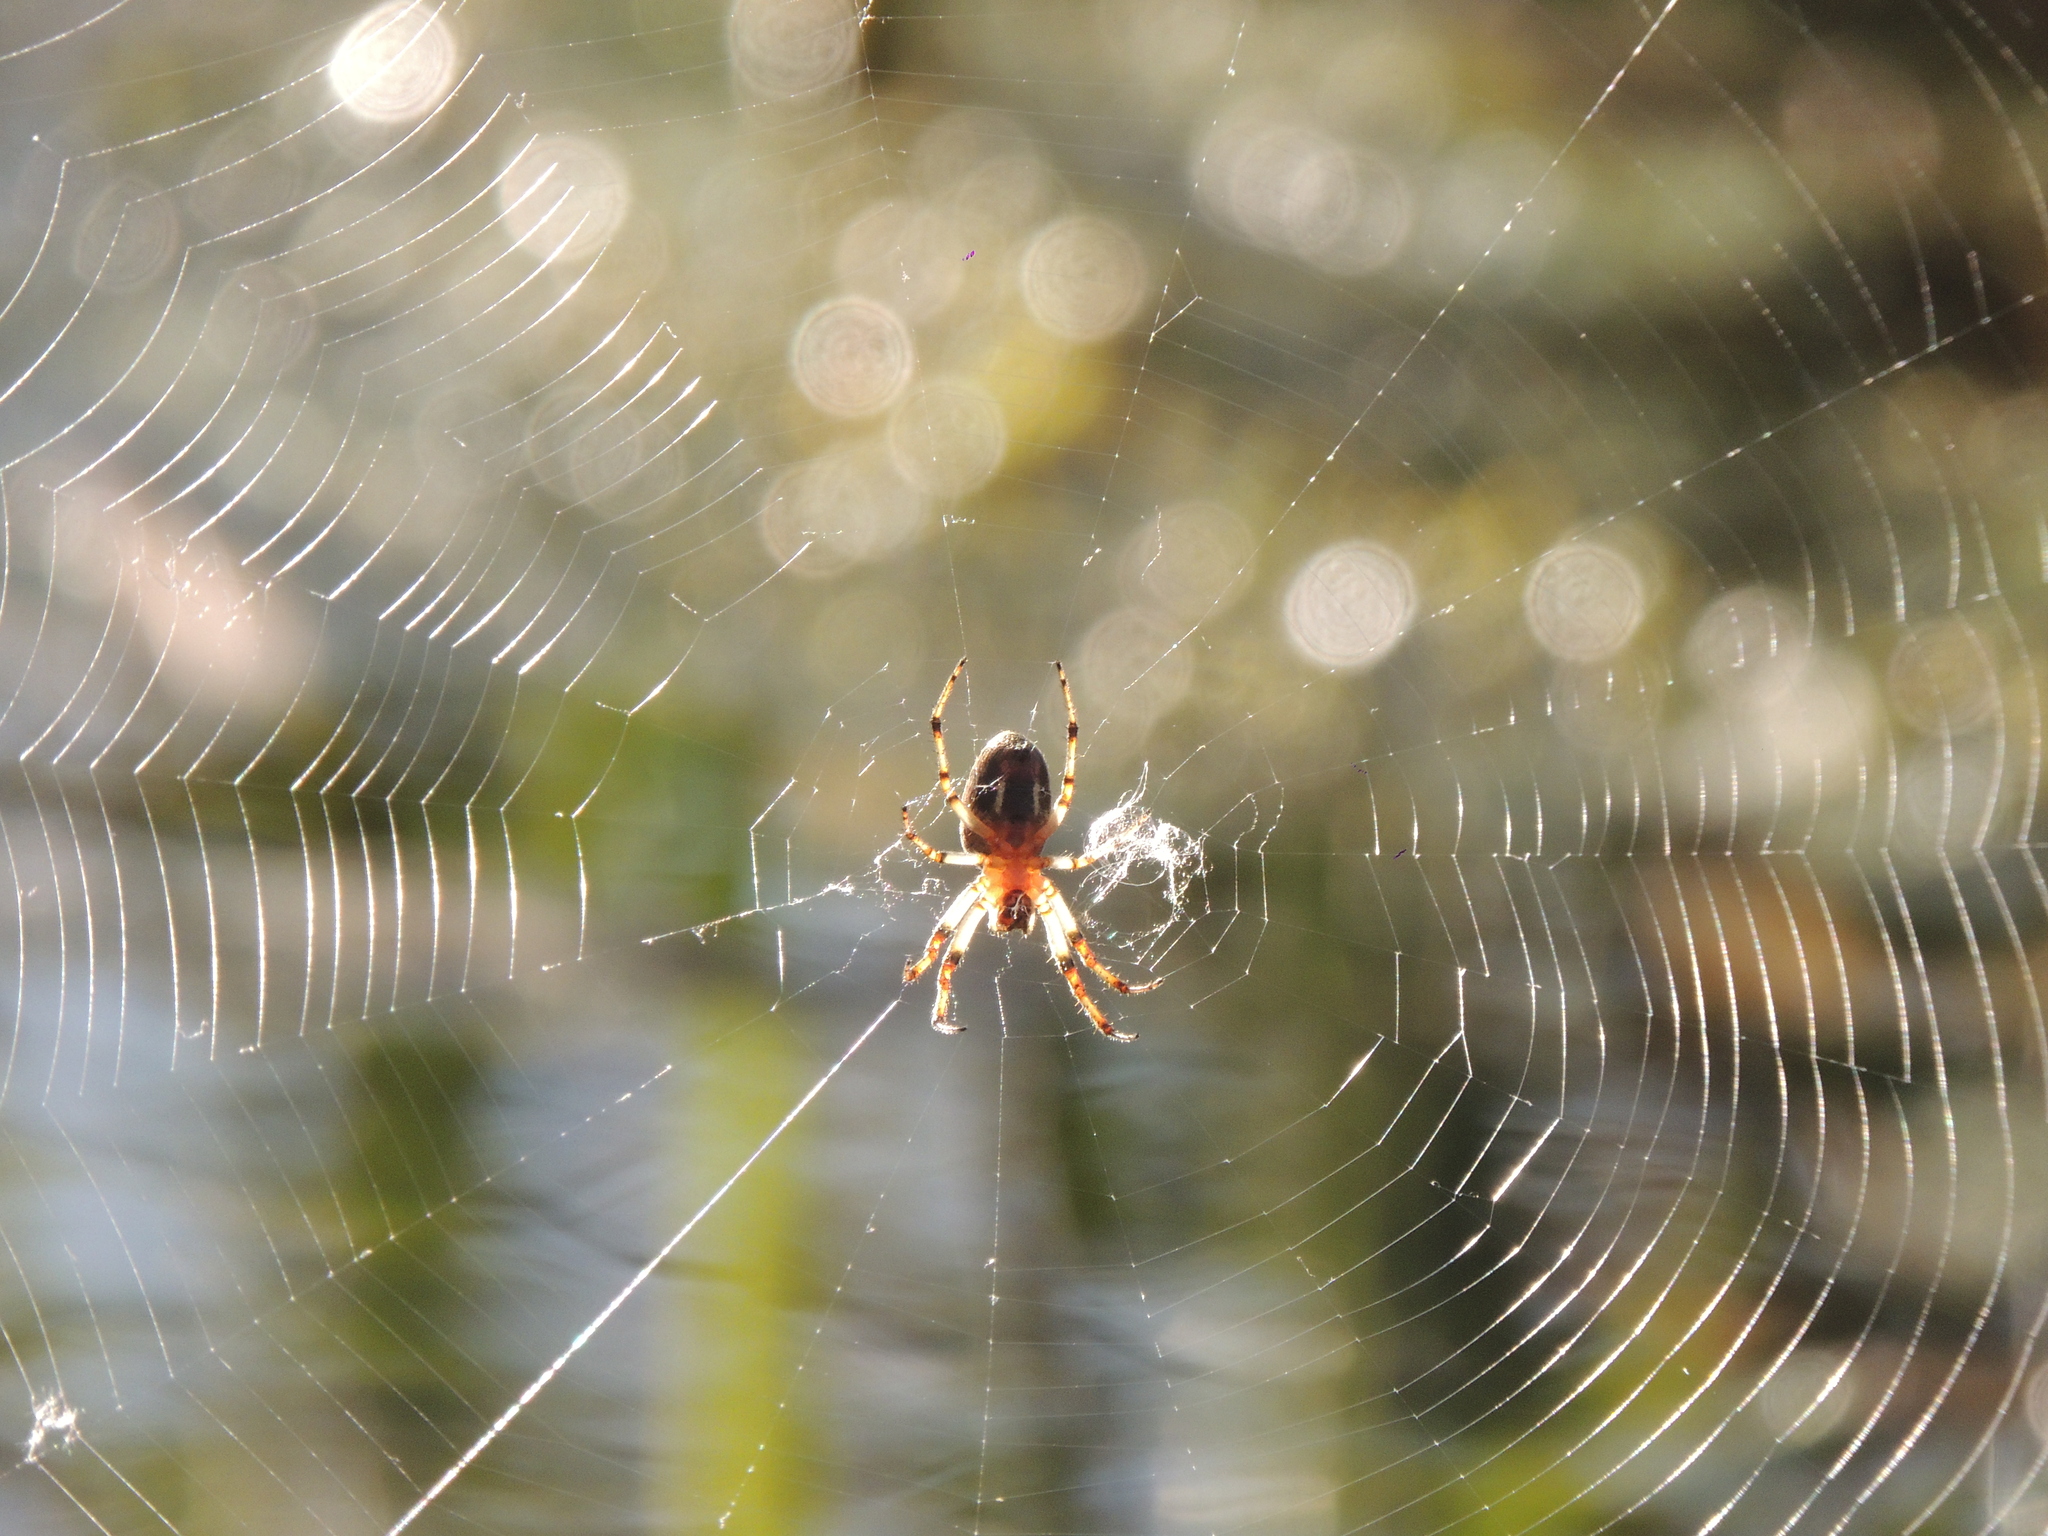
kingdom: Animalia
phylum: Arthropoda
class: Arachnida
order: Araneae
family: Araneidae
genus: Alpaida
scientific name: Alpaida veniliae
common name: Orb weavers
